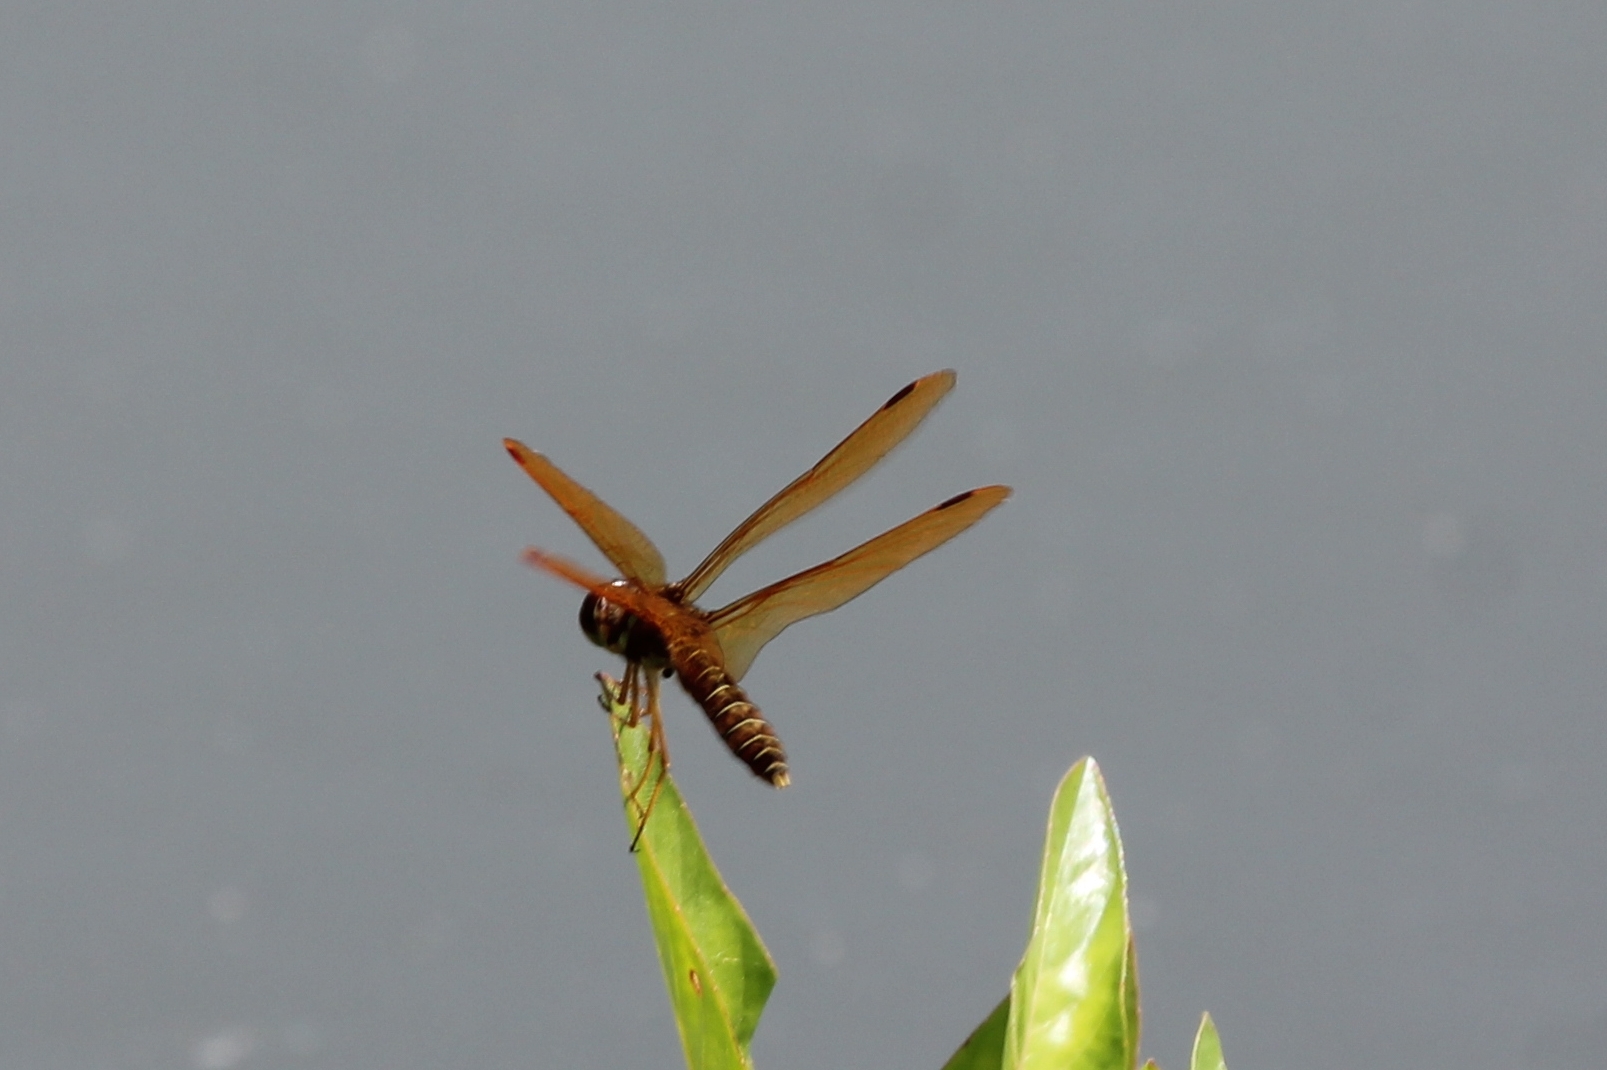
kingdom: Animalia
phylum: Arthropoda
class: Insecta
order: Odonata
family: Libellulidae
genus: Perithemis
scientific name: Perithemis tenera
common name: Eastern amberwing
